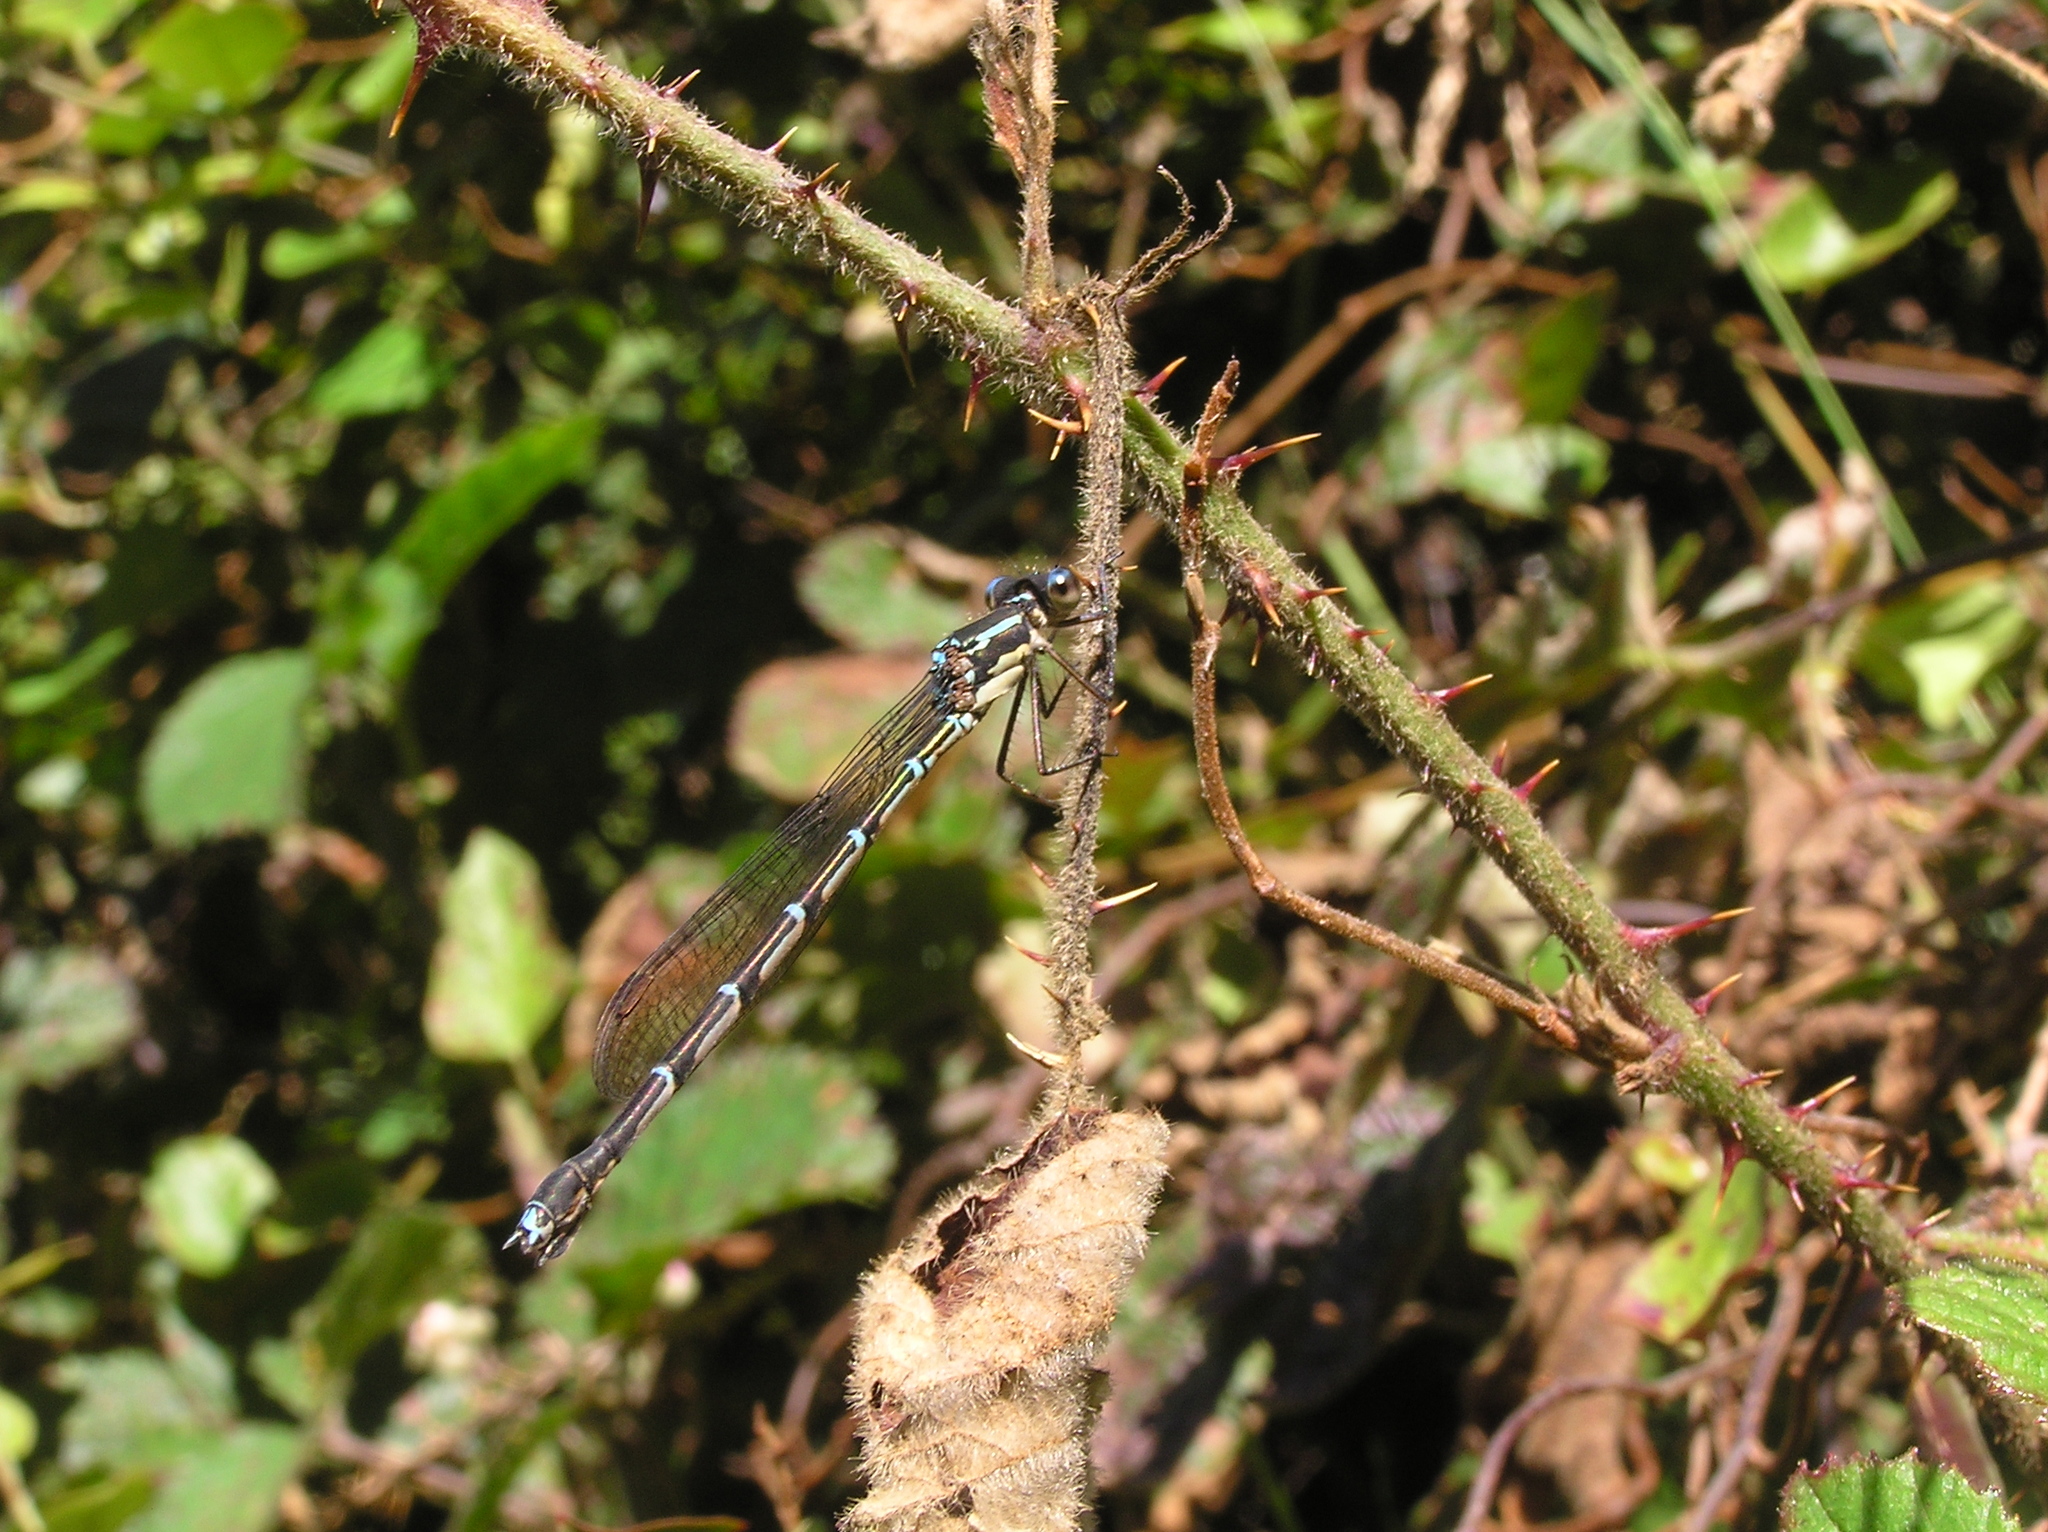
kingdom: Animalia
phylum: Arthropoda
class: Insecta
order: Odonata
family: Lestidae
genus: Austrolestes
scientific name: Austrolestes colensonis
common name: Blue damselfly
